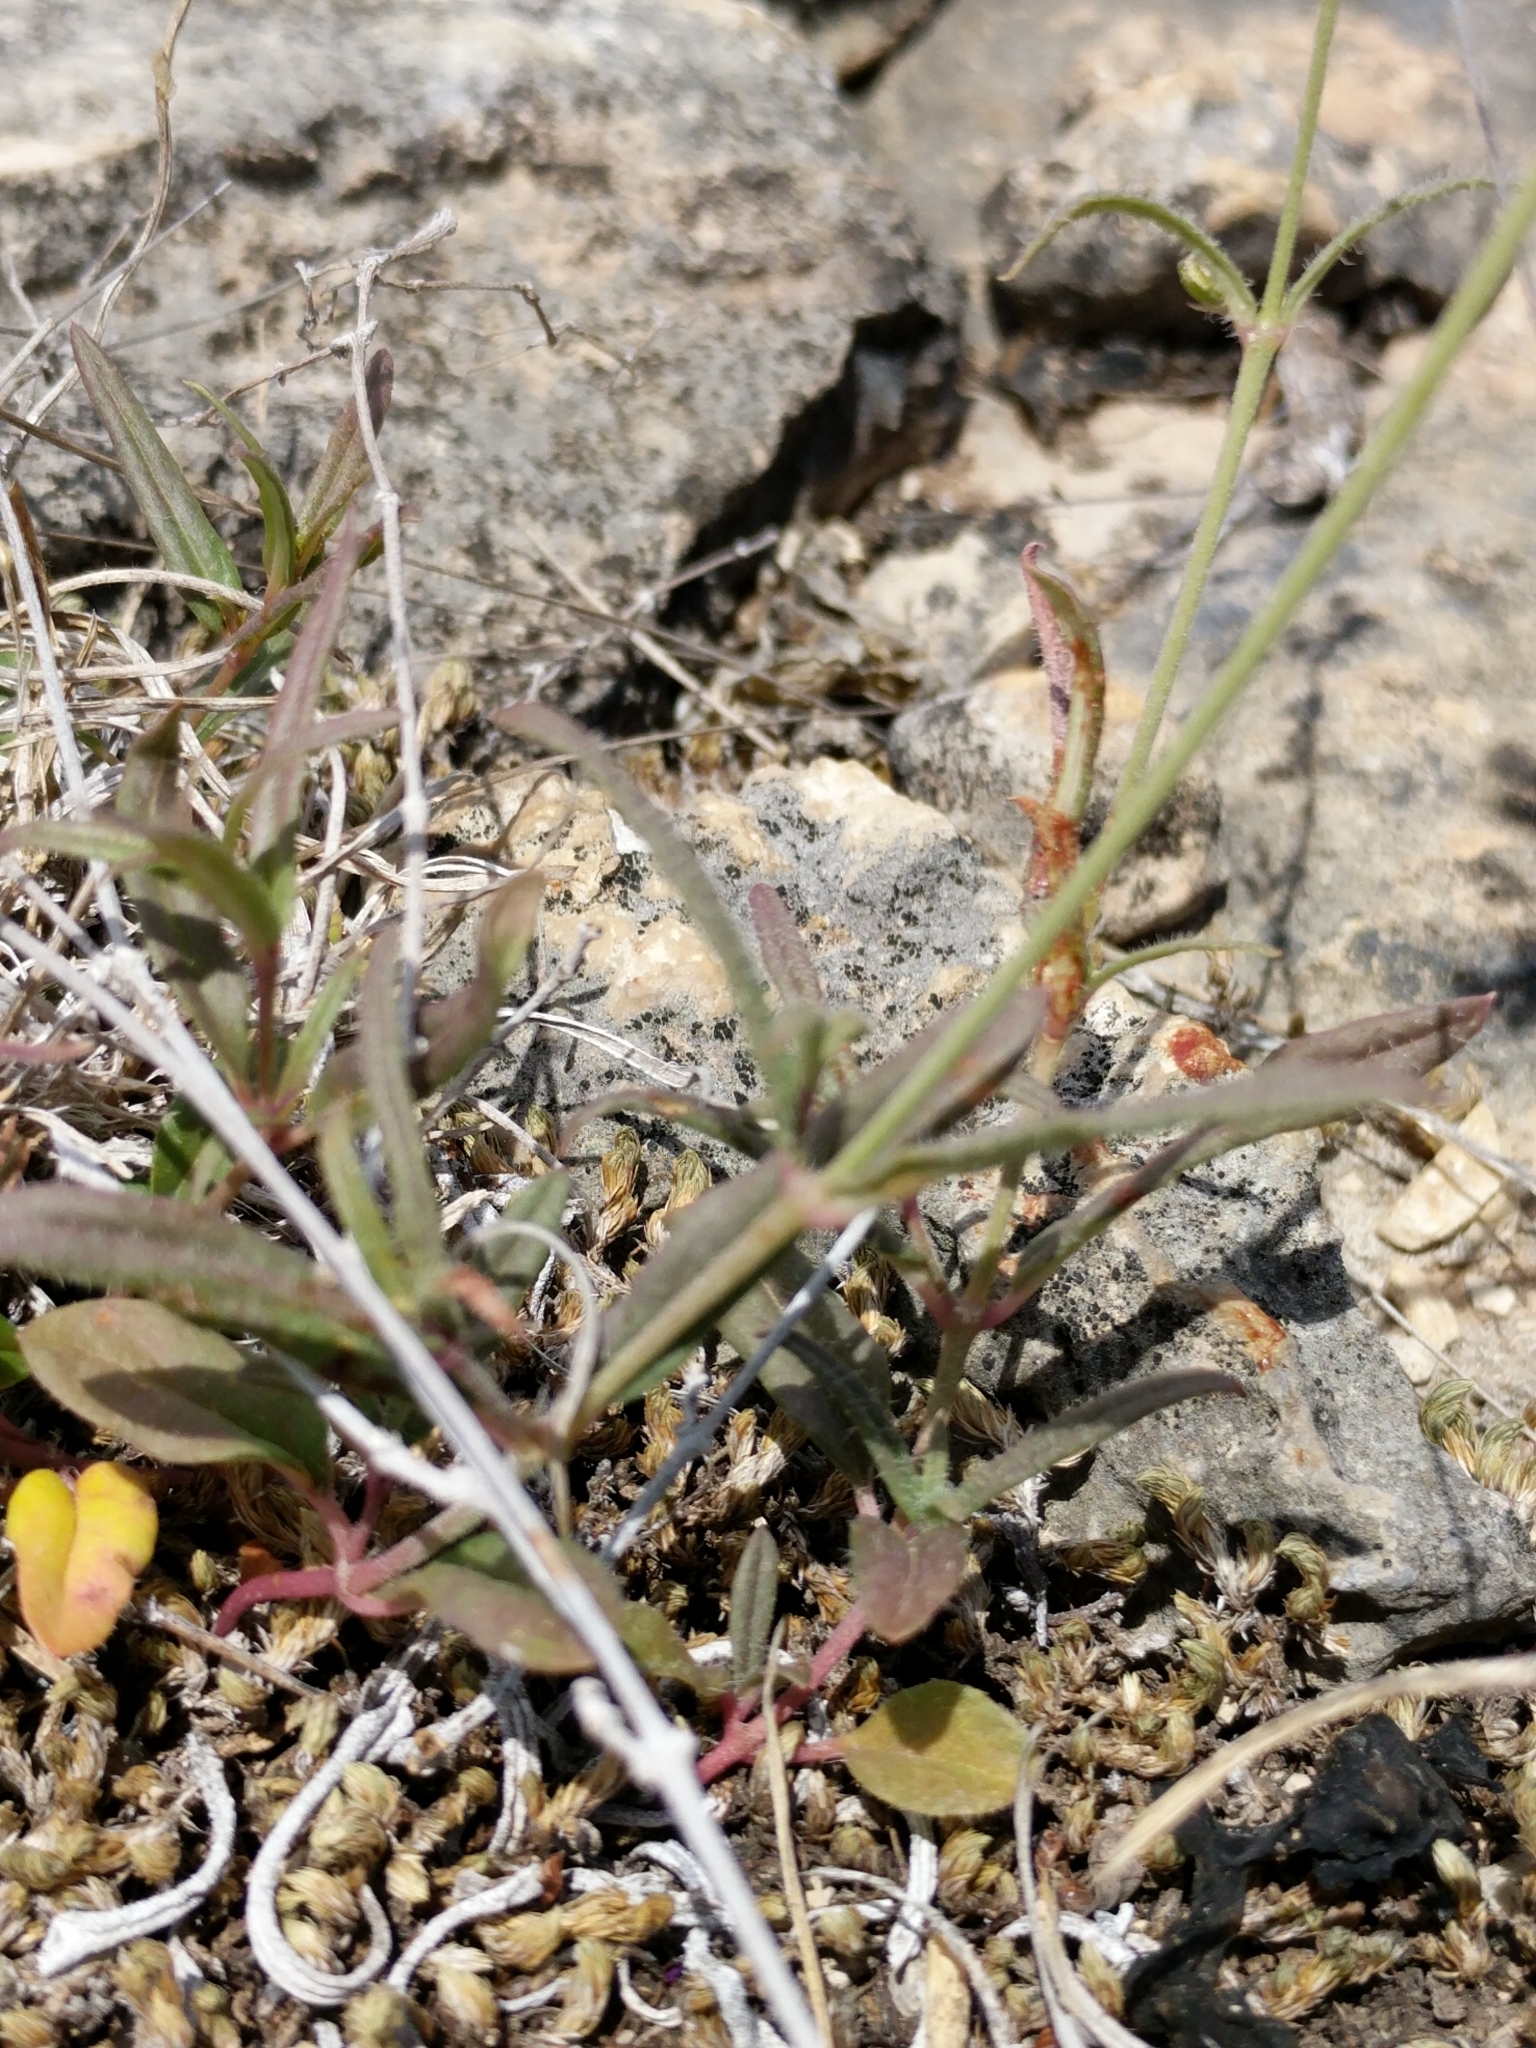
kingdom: Plantae
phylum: Tracheophyta
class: Magnoliopsida
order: Caryophyllales
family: Nyctaginaceae
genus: Boerhavia
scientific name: Boerhavia linearifolia
